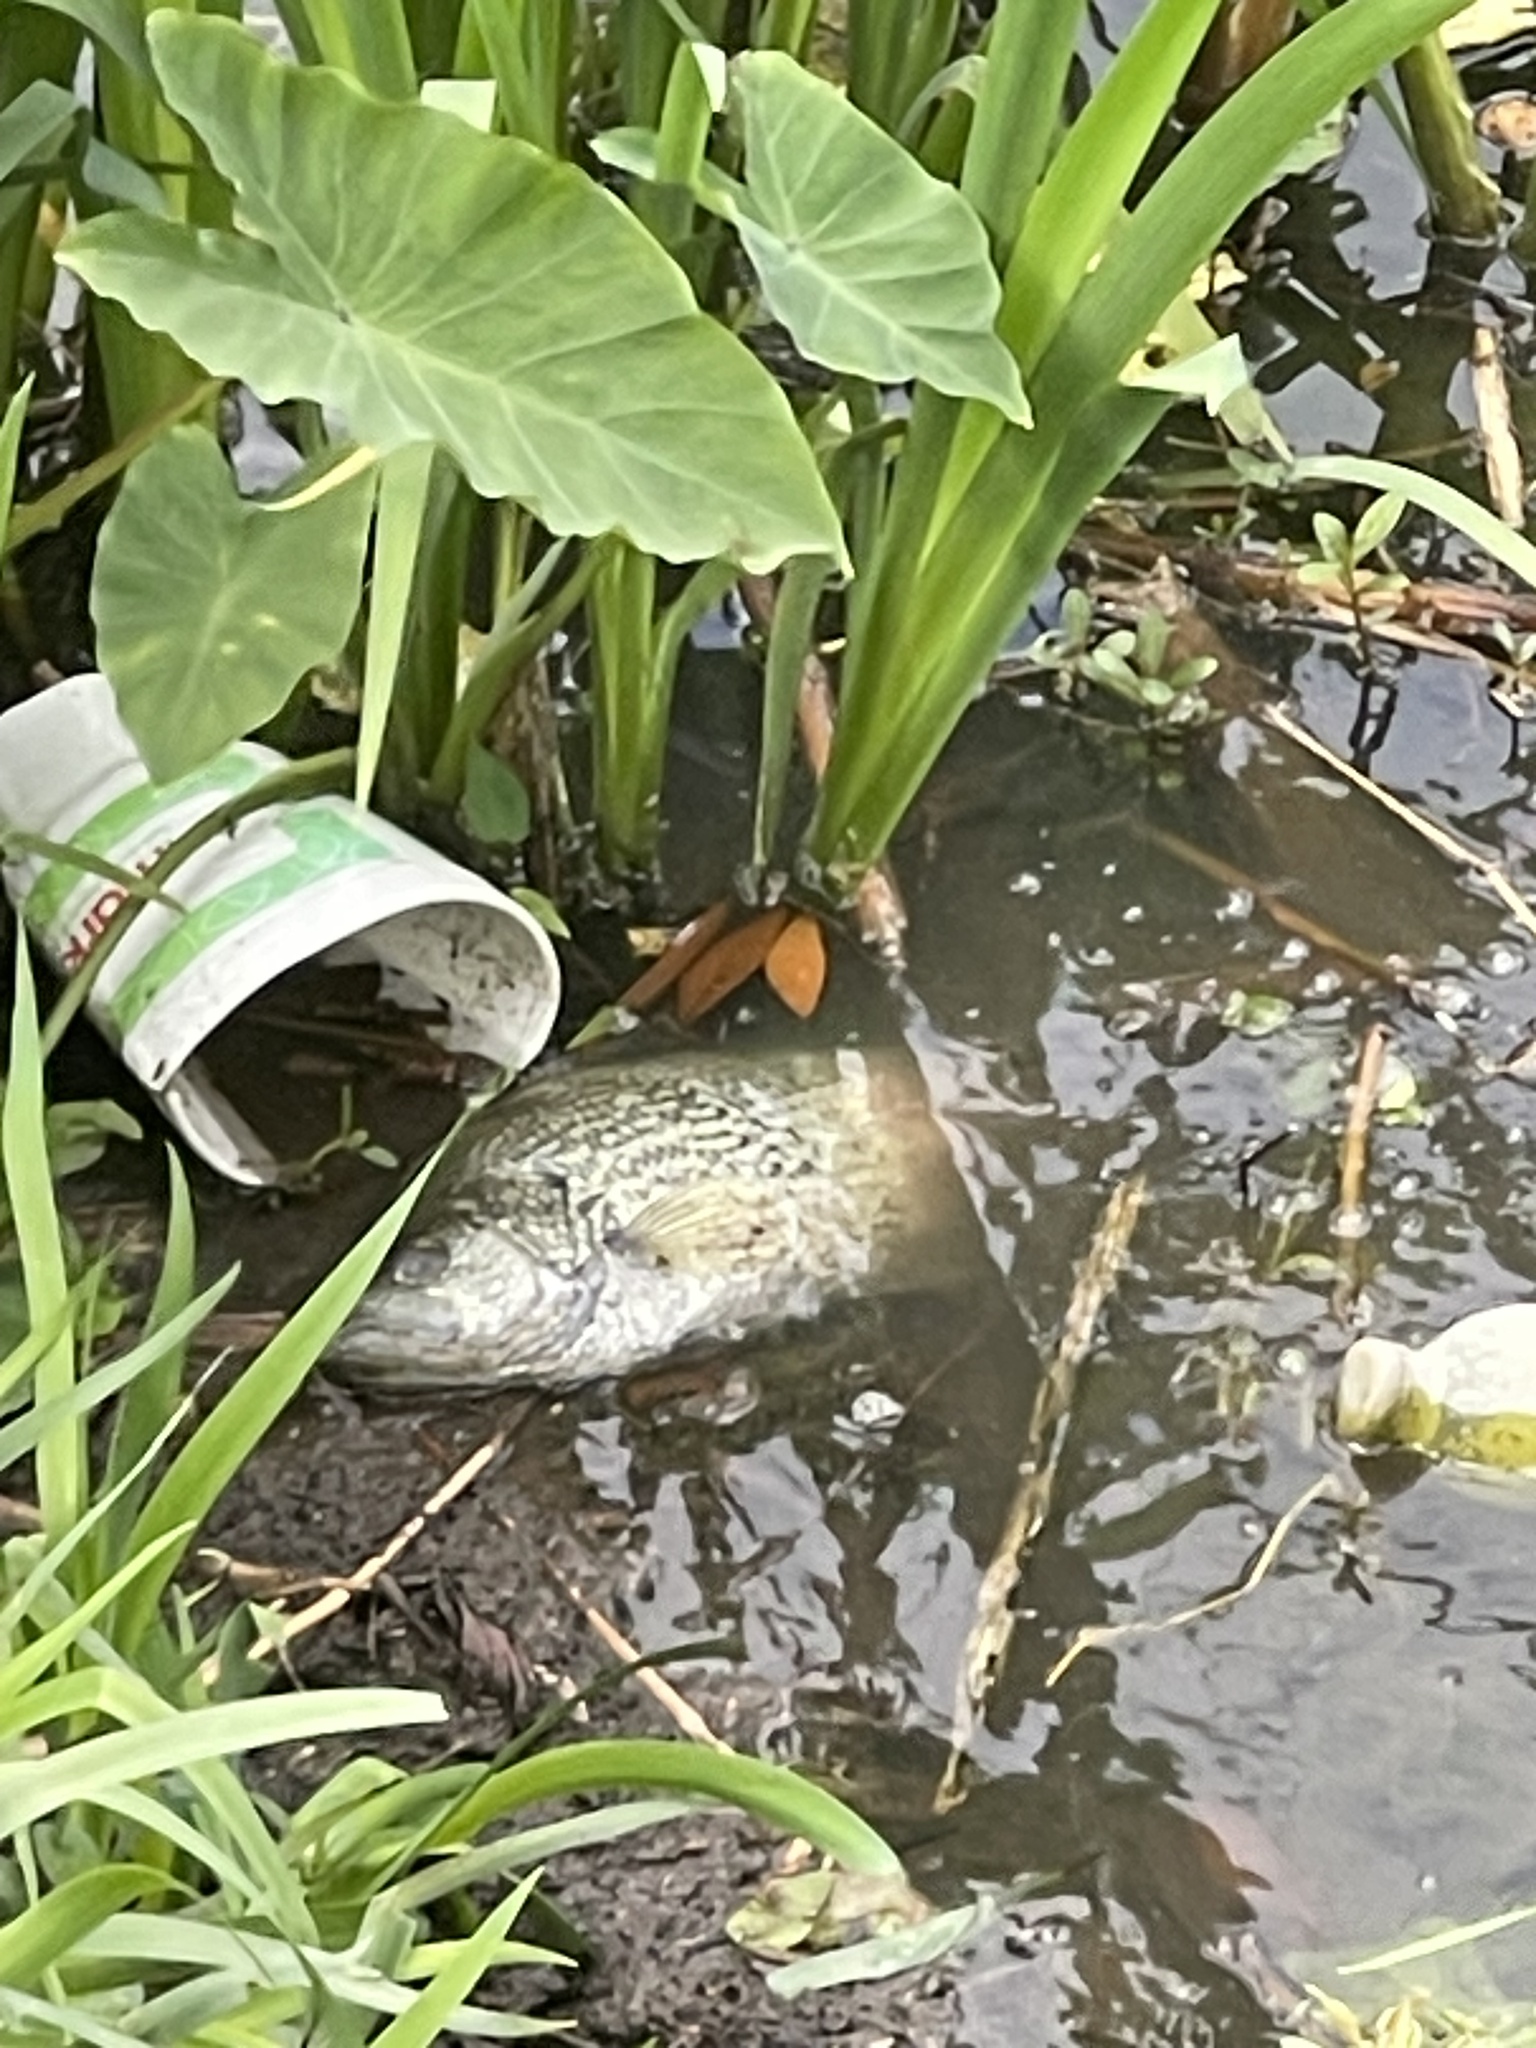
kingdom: Animalia
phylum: Chordata
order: Perciformes
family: Centrarchidae
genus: Pomoxis
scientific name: Pomoxis nigromaculatus
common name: Black crappie
